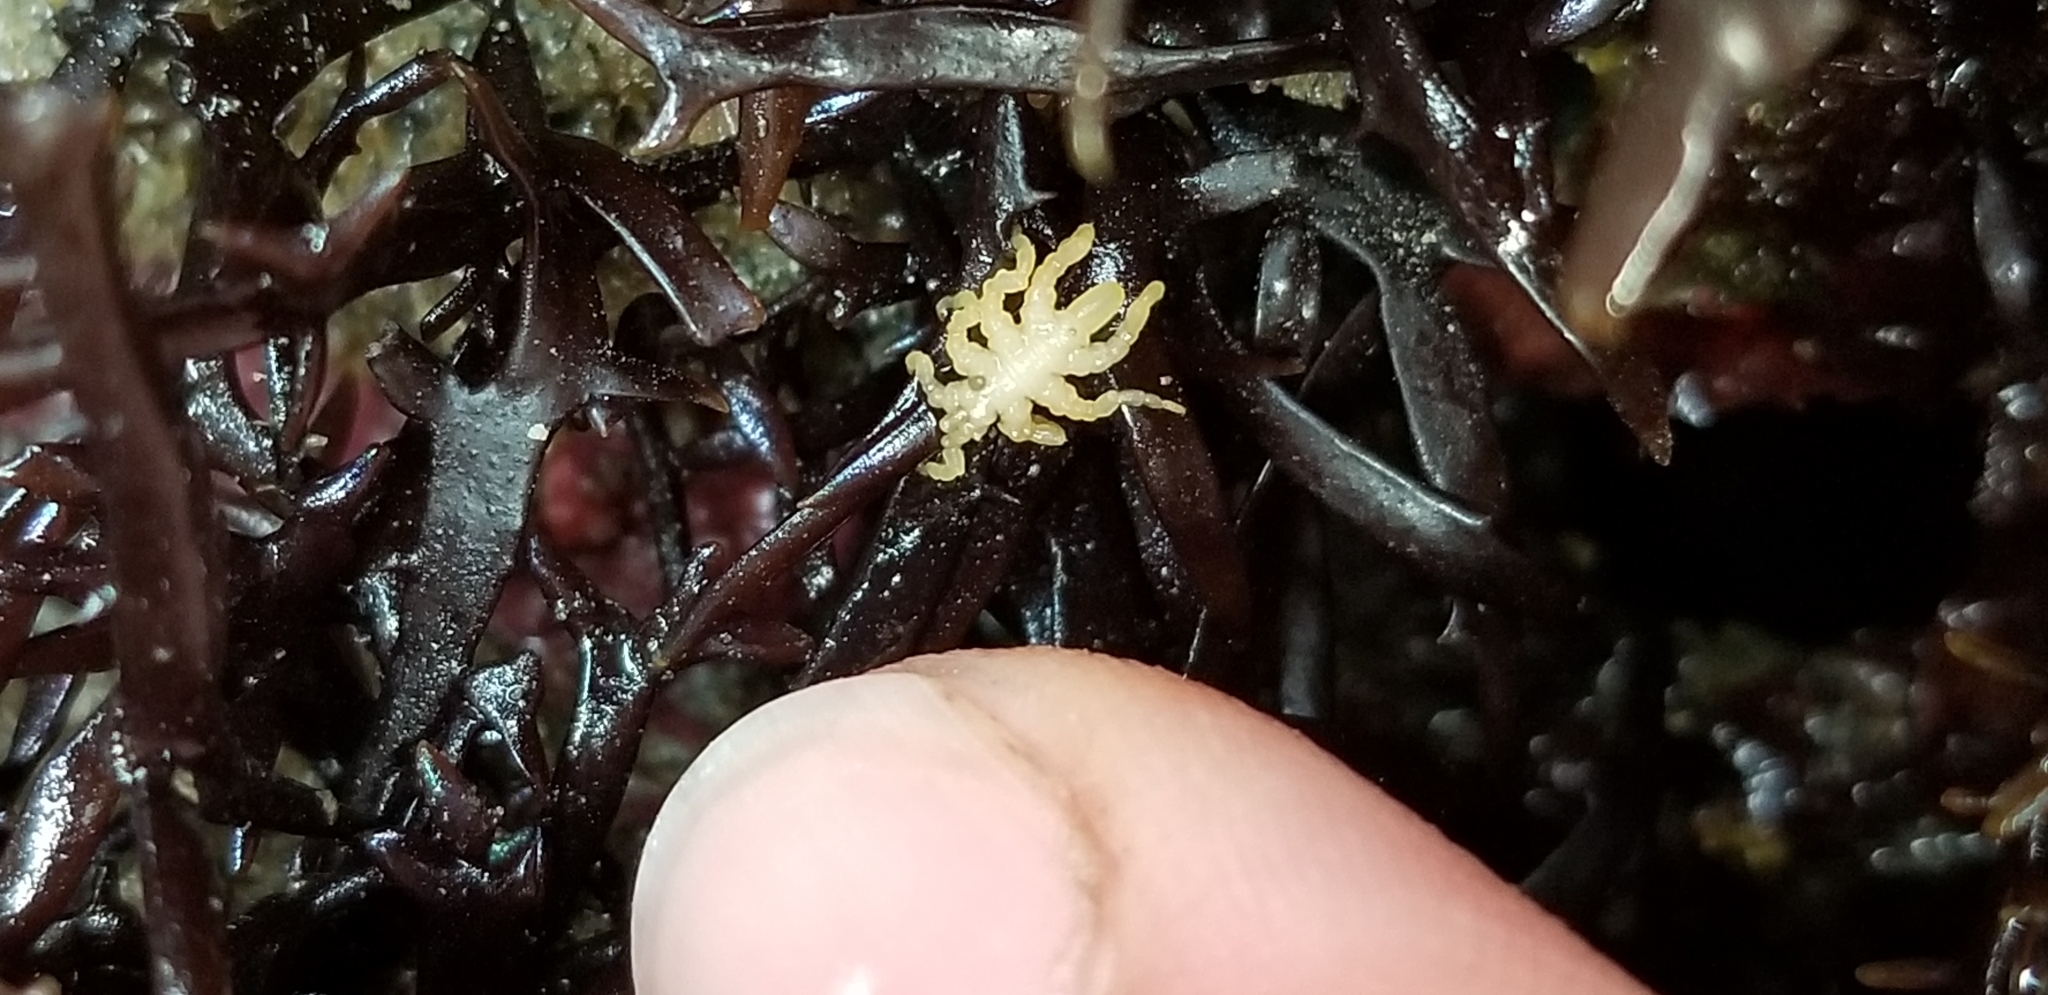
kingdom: Animalia
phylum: Arthropoda
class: Pycnogonida
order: Pantopoda
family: Pycnogonidae
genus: Pycnogonum
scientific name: Pycnogonum stearnsi
